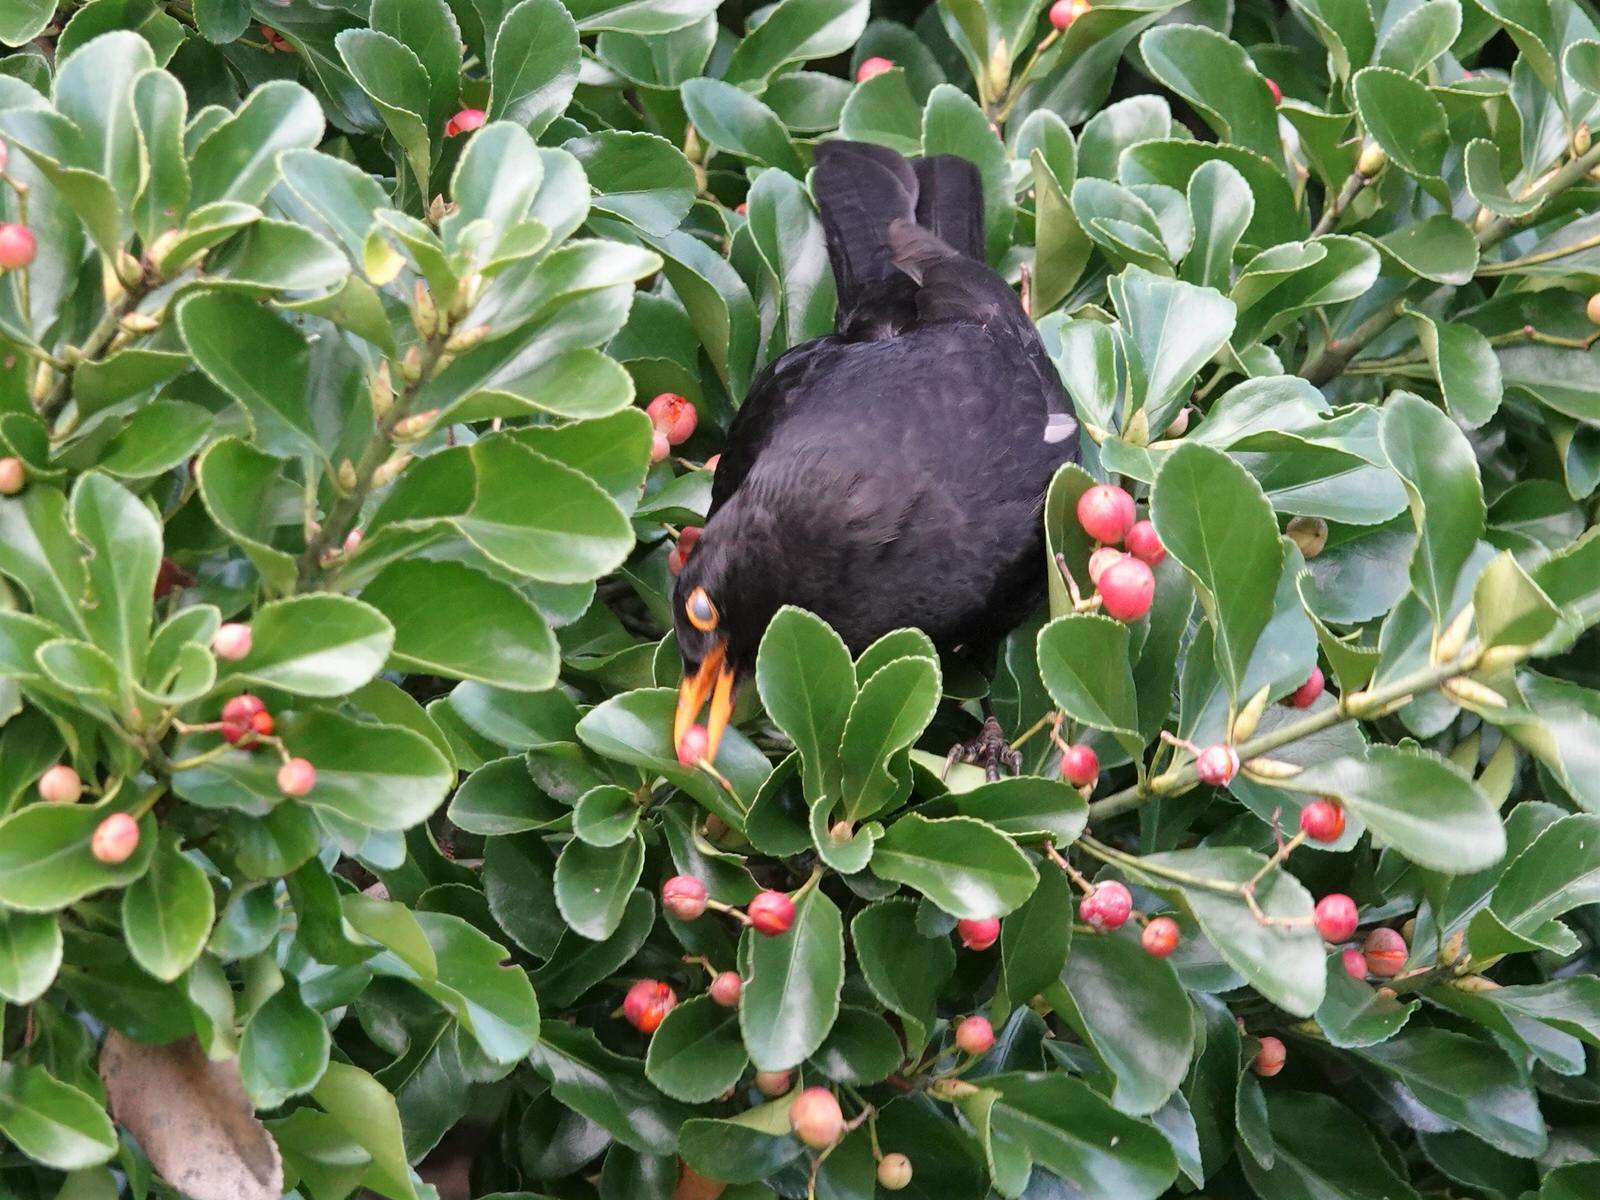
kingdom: Plantae
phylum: Tracheophyta
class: Magnoliopsida
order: Celastrales
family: Celastraceae
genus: Euonymus
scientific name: Euonymus japonicus
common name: Japanese spindletree
